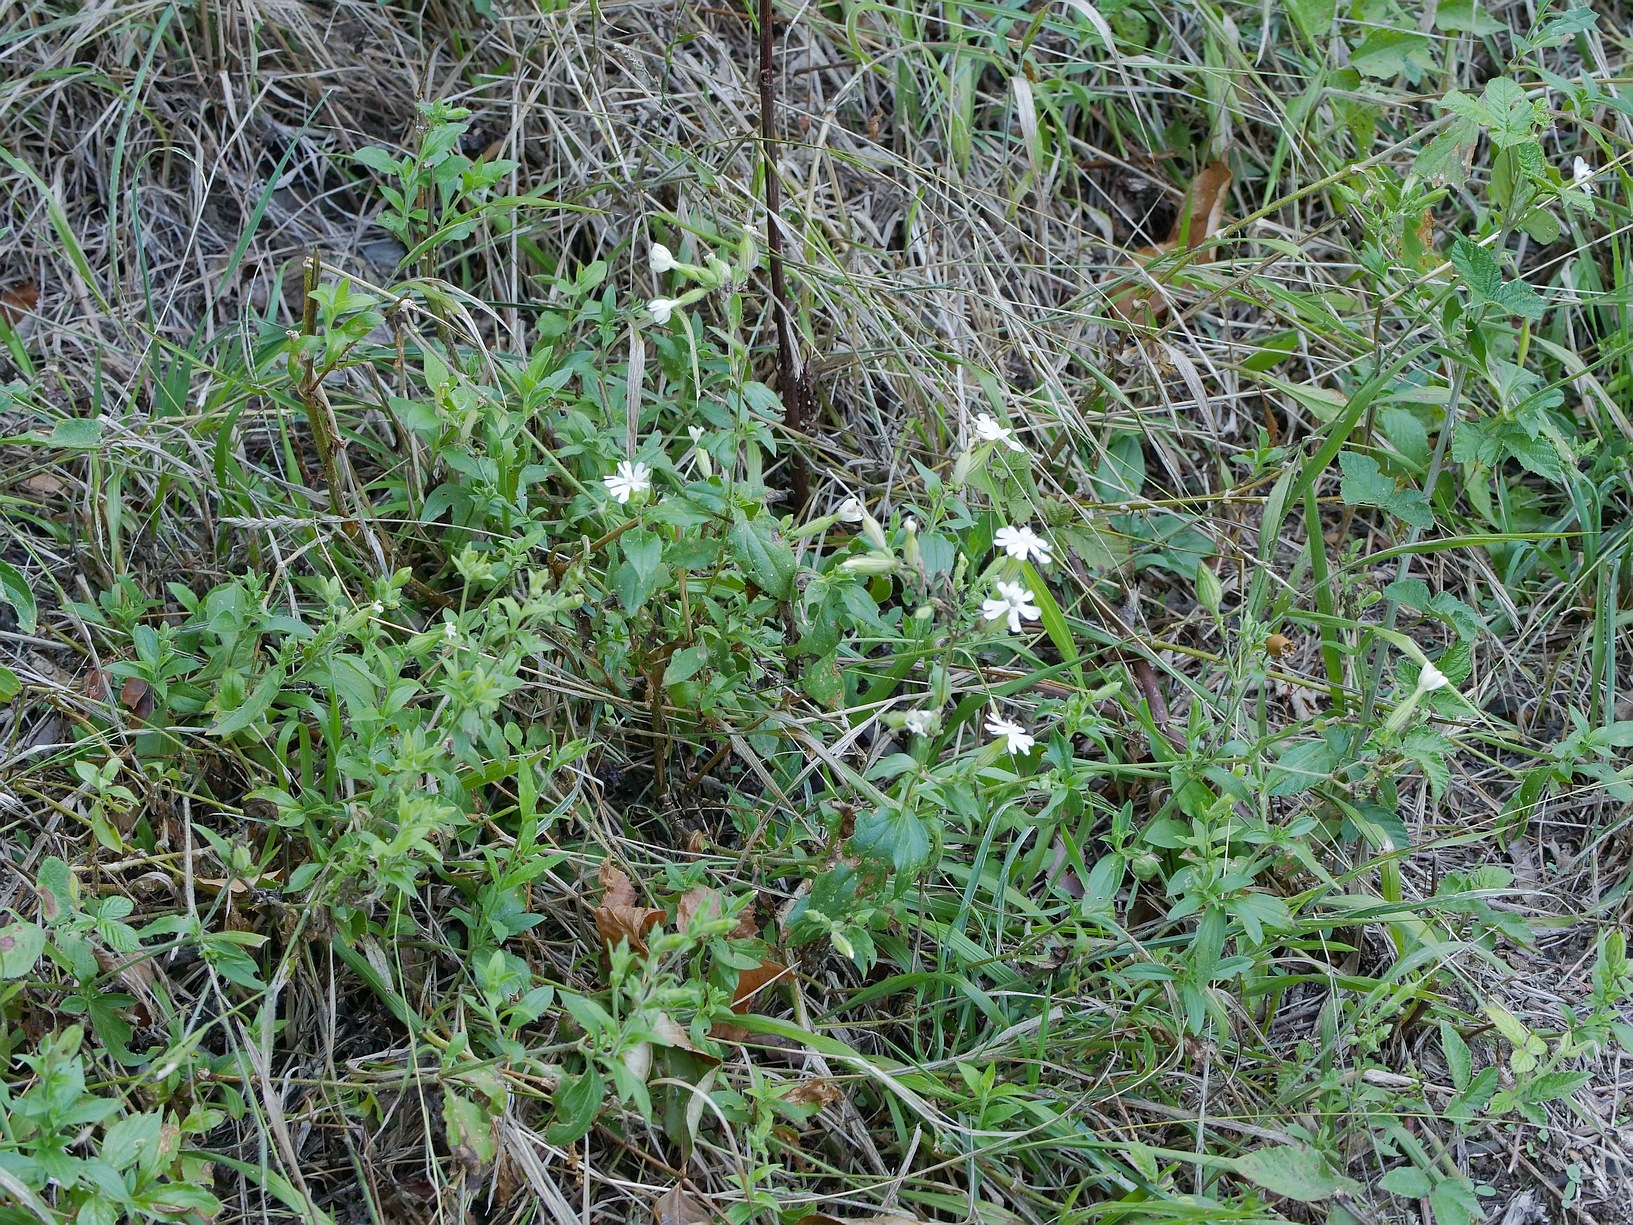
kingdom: Plantae
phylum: Tracheophyta
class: Magnoliopsida
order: Caryophyllales
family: Caryophyllaceae
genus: Silene
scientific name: Silene latifolia
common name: White campion
